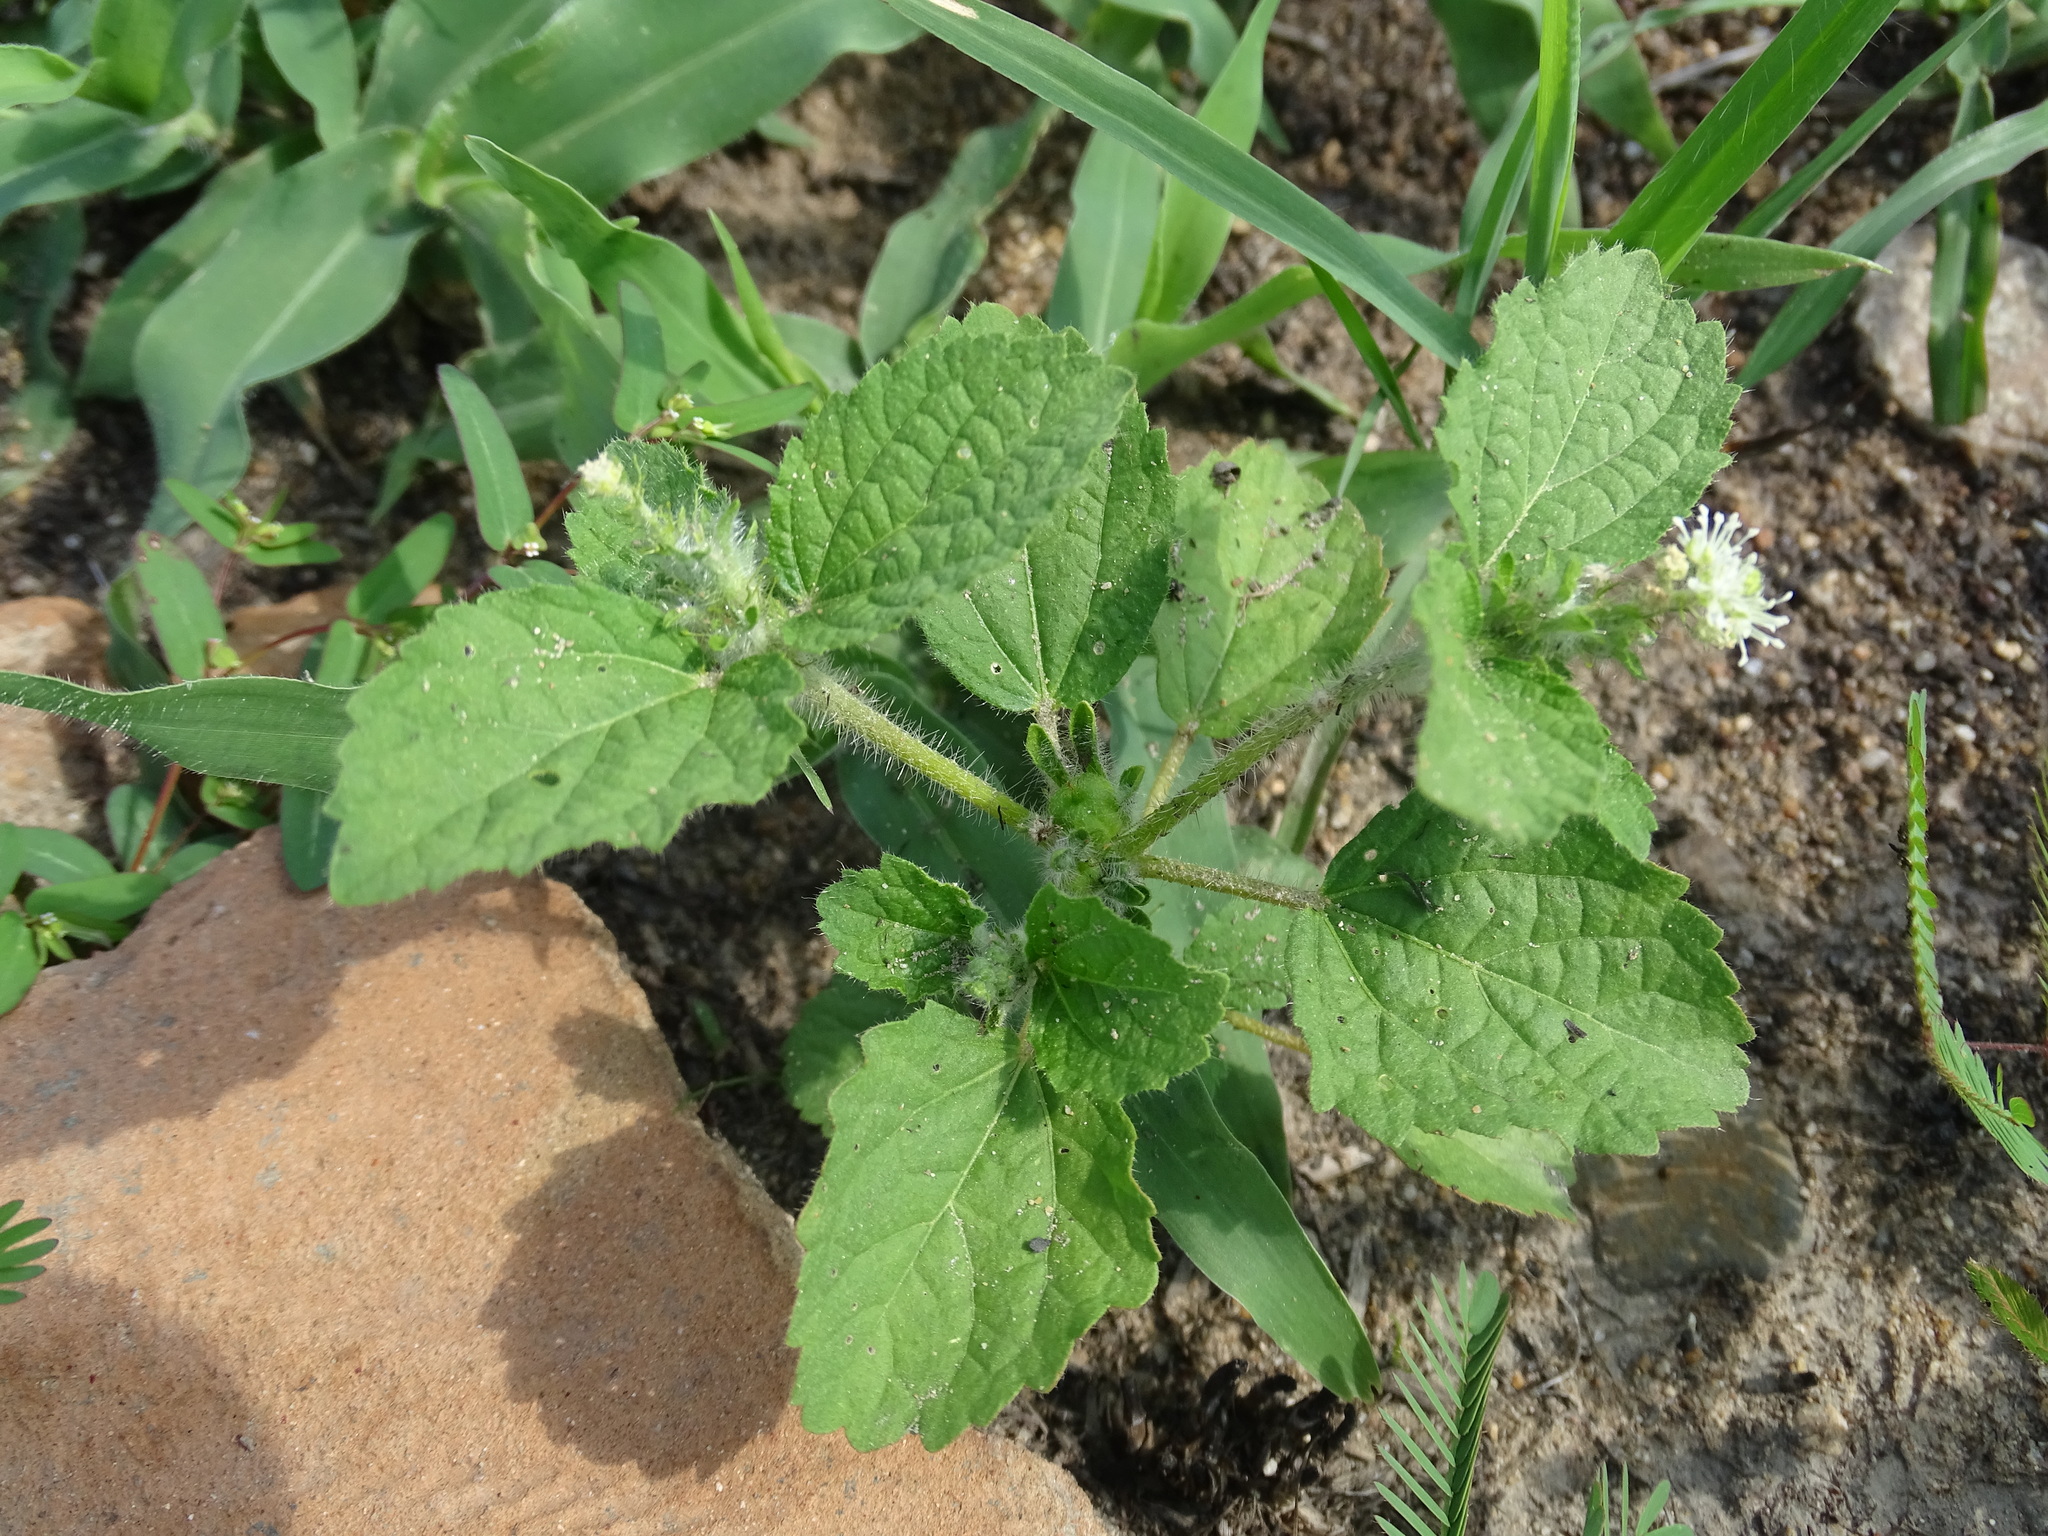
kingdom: Plantae
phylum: Tracheophyta
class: Magnoliopsida
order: Malpighiales
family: Euphorbiaceae
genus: Croton
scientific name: Croton hirtus
